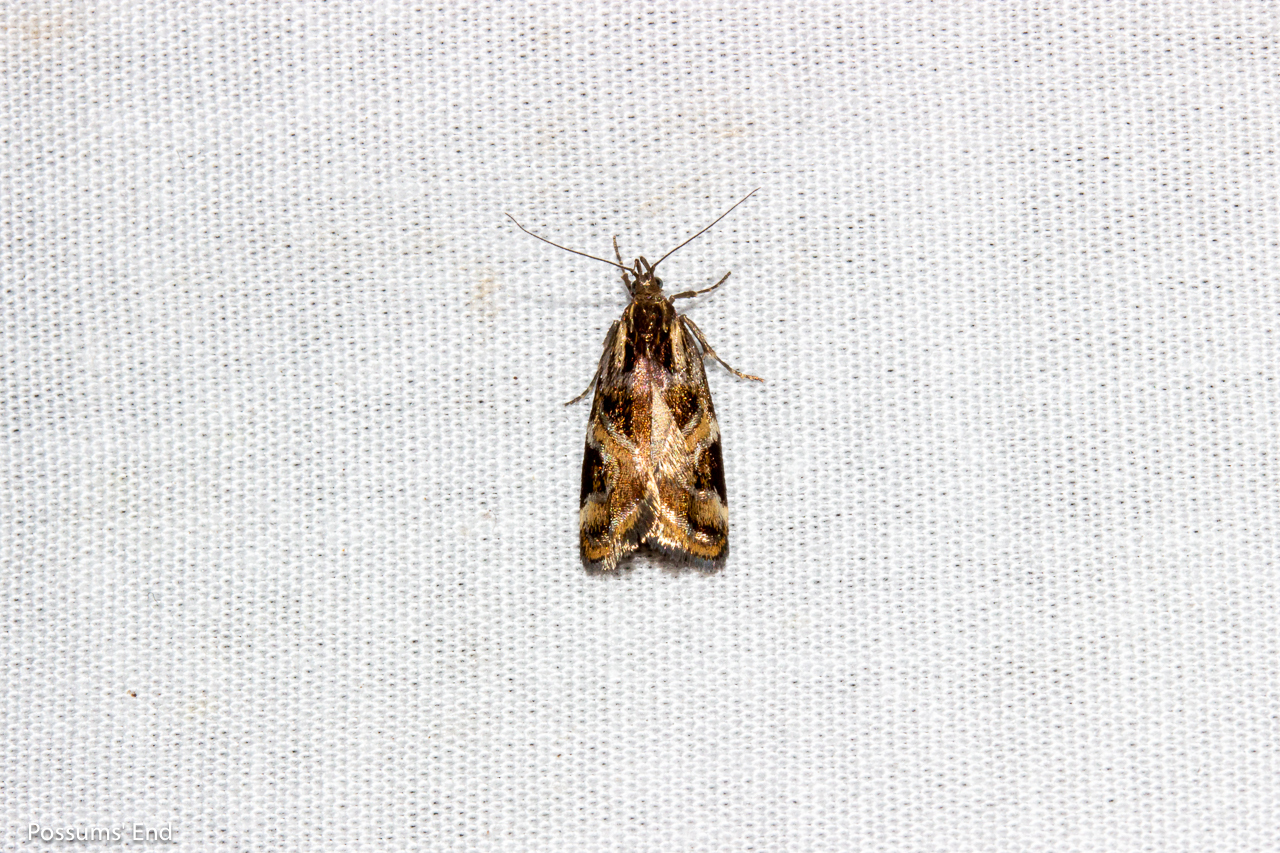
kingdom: Animalia
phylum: Arthropoda
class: Insecta
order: Lepidoptera
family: Oecophoridae
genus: Hierodoris
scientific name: Hierodoris s-fractum
